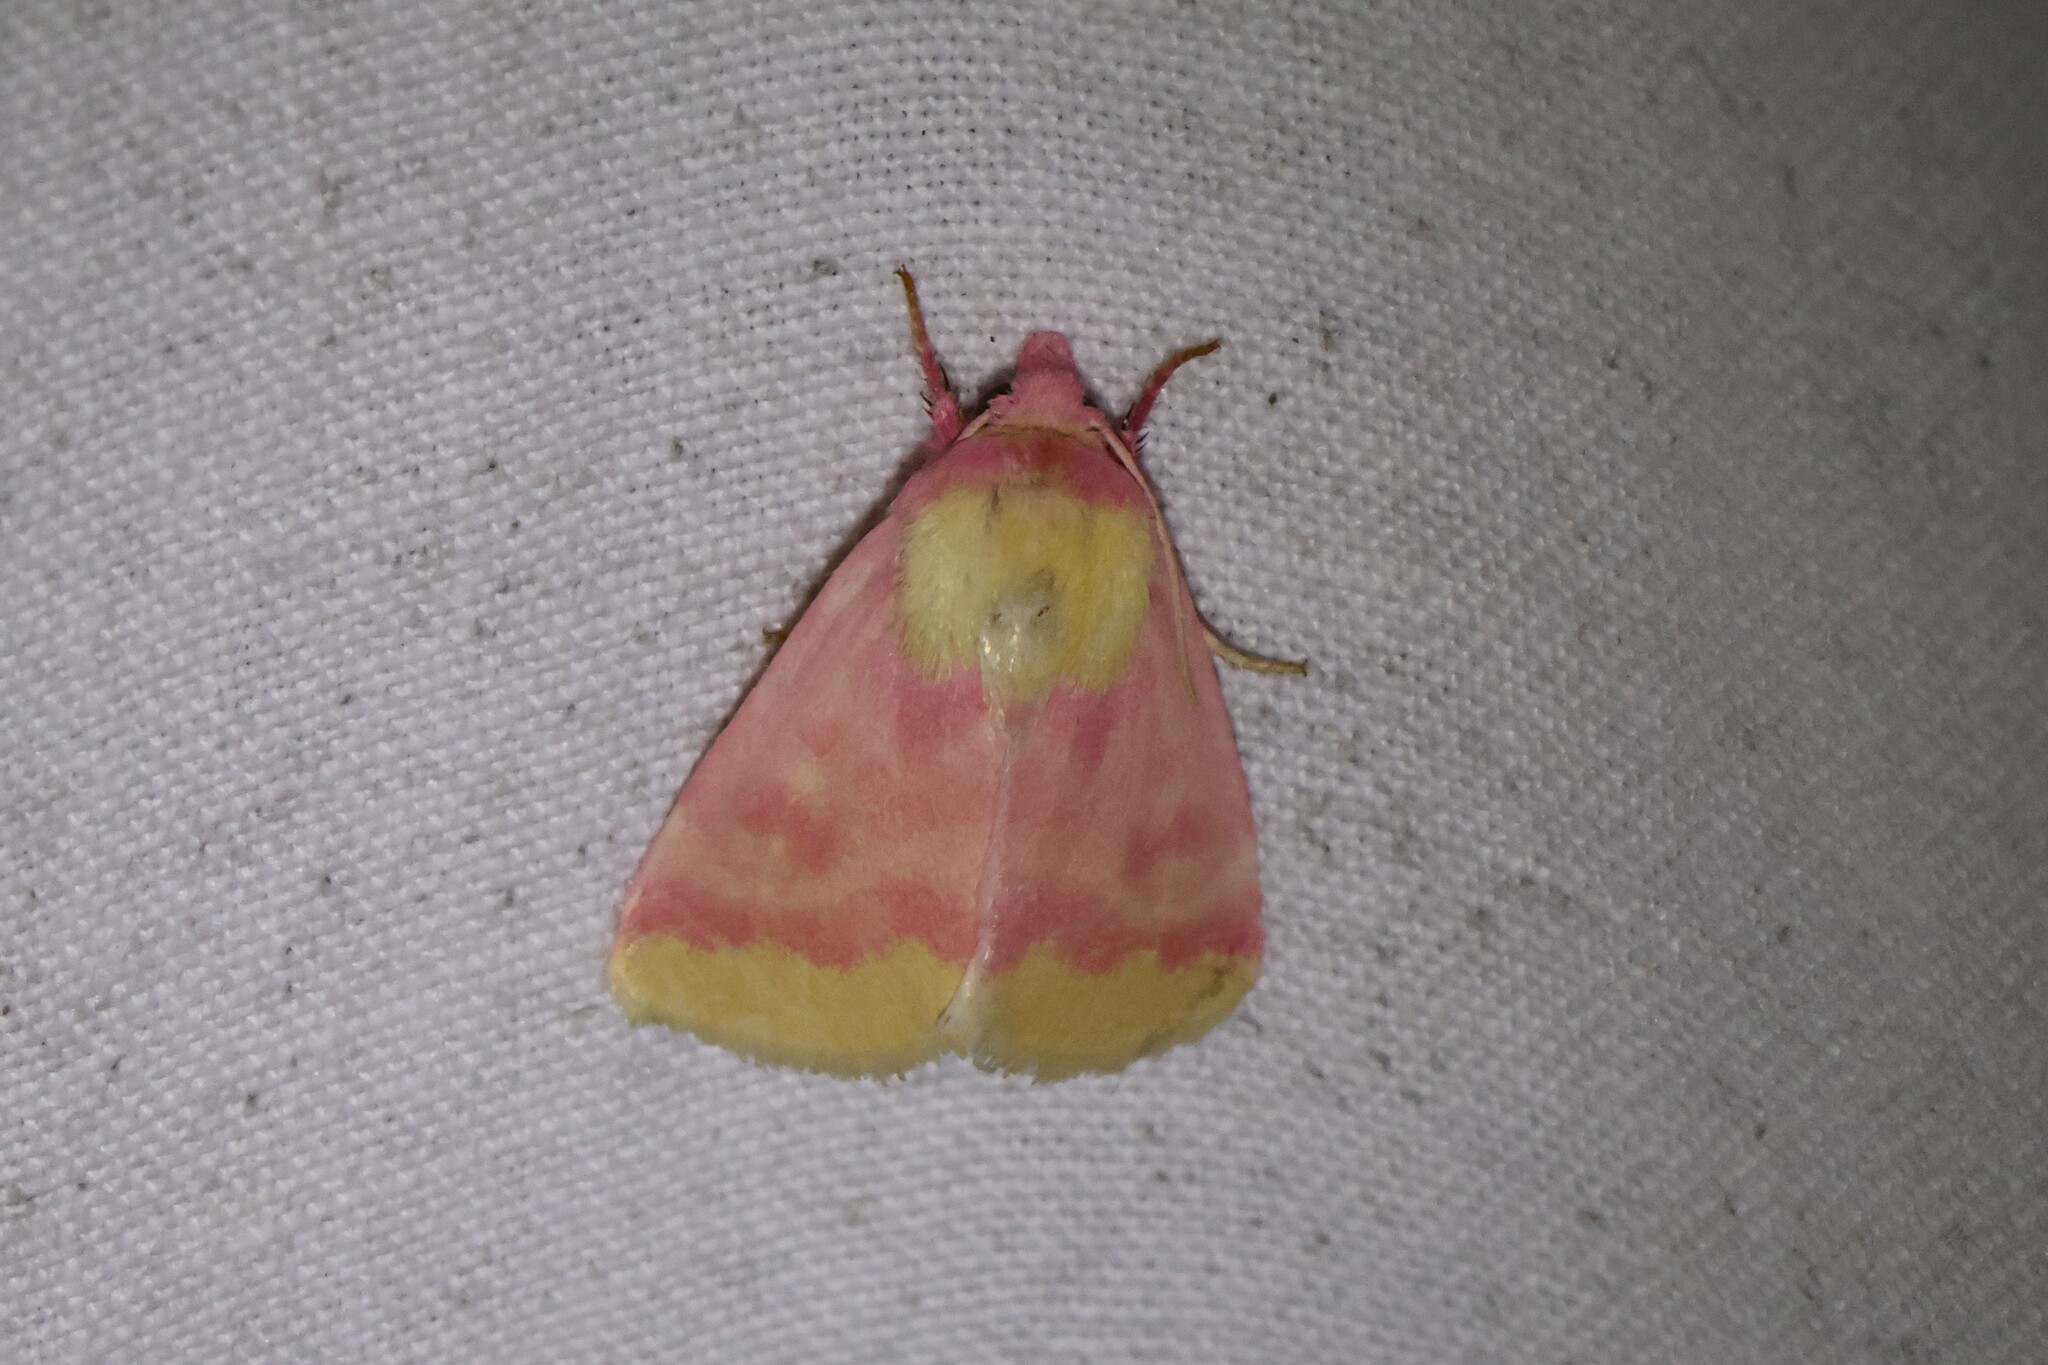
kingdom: Animalia
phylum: Arthropoda
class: Insecta
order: Lepidoptera
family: Noctuidae
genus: Schinia
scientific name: Schinia florida
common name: Primrose moth
